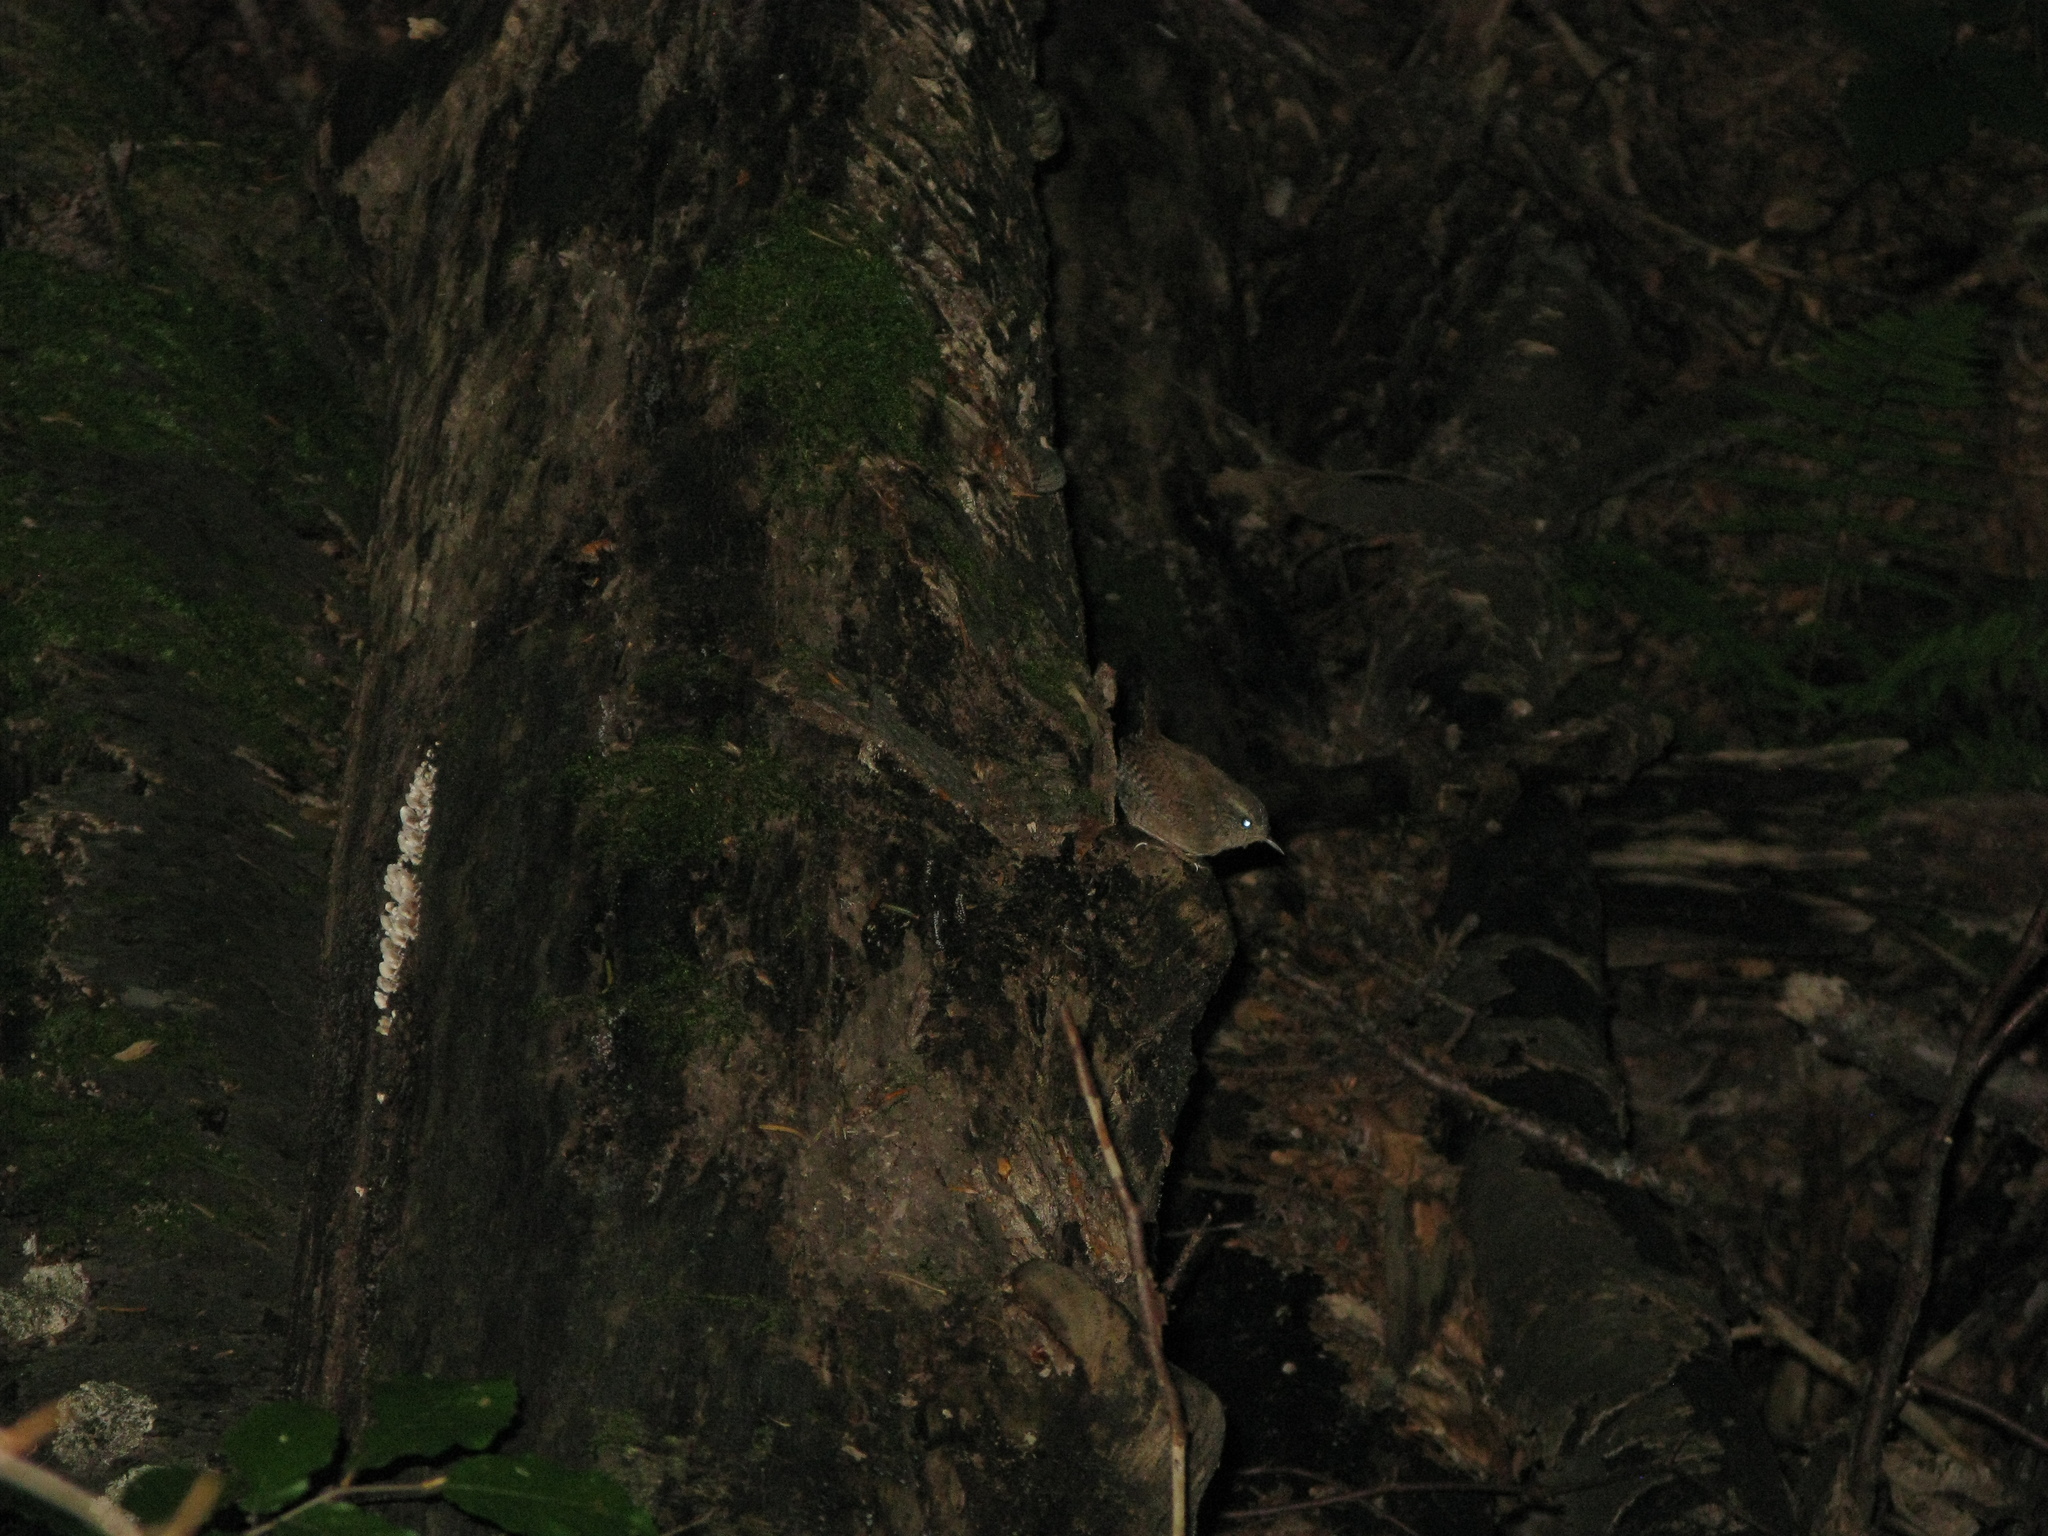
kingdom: Animalia
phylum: Chordata
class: Aves
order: Passeriformes
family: Troglodytidae
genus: Troglodytes
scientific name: Troglodytes troglodytes
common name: Eurasian wren
